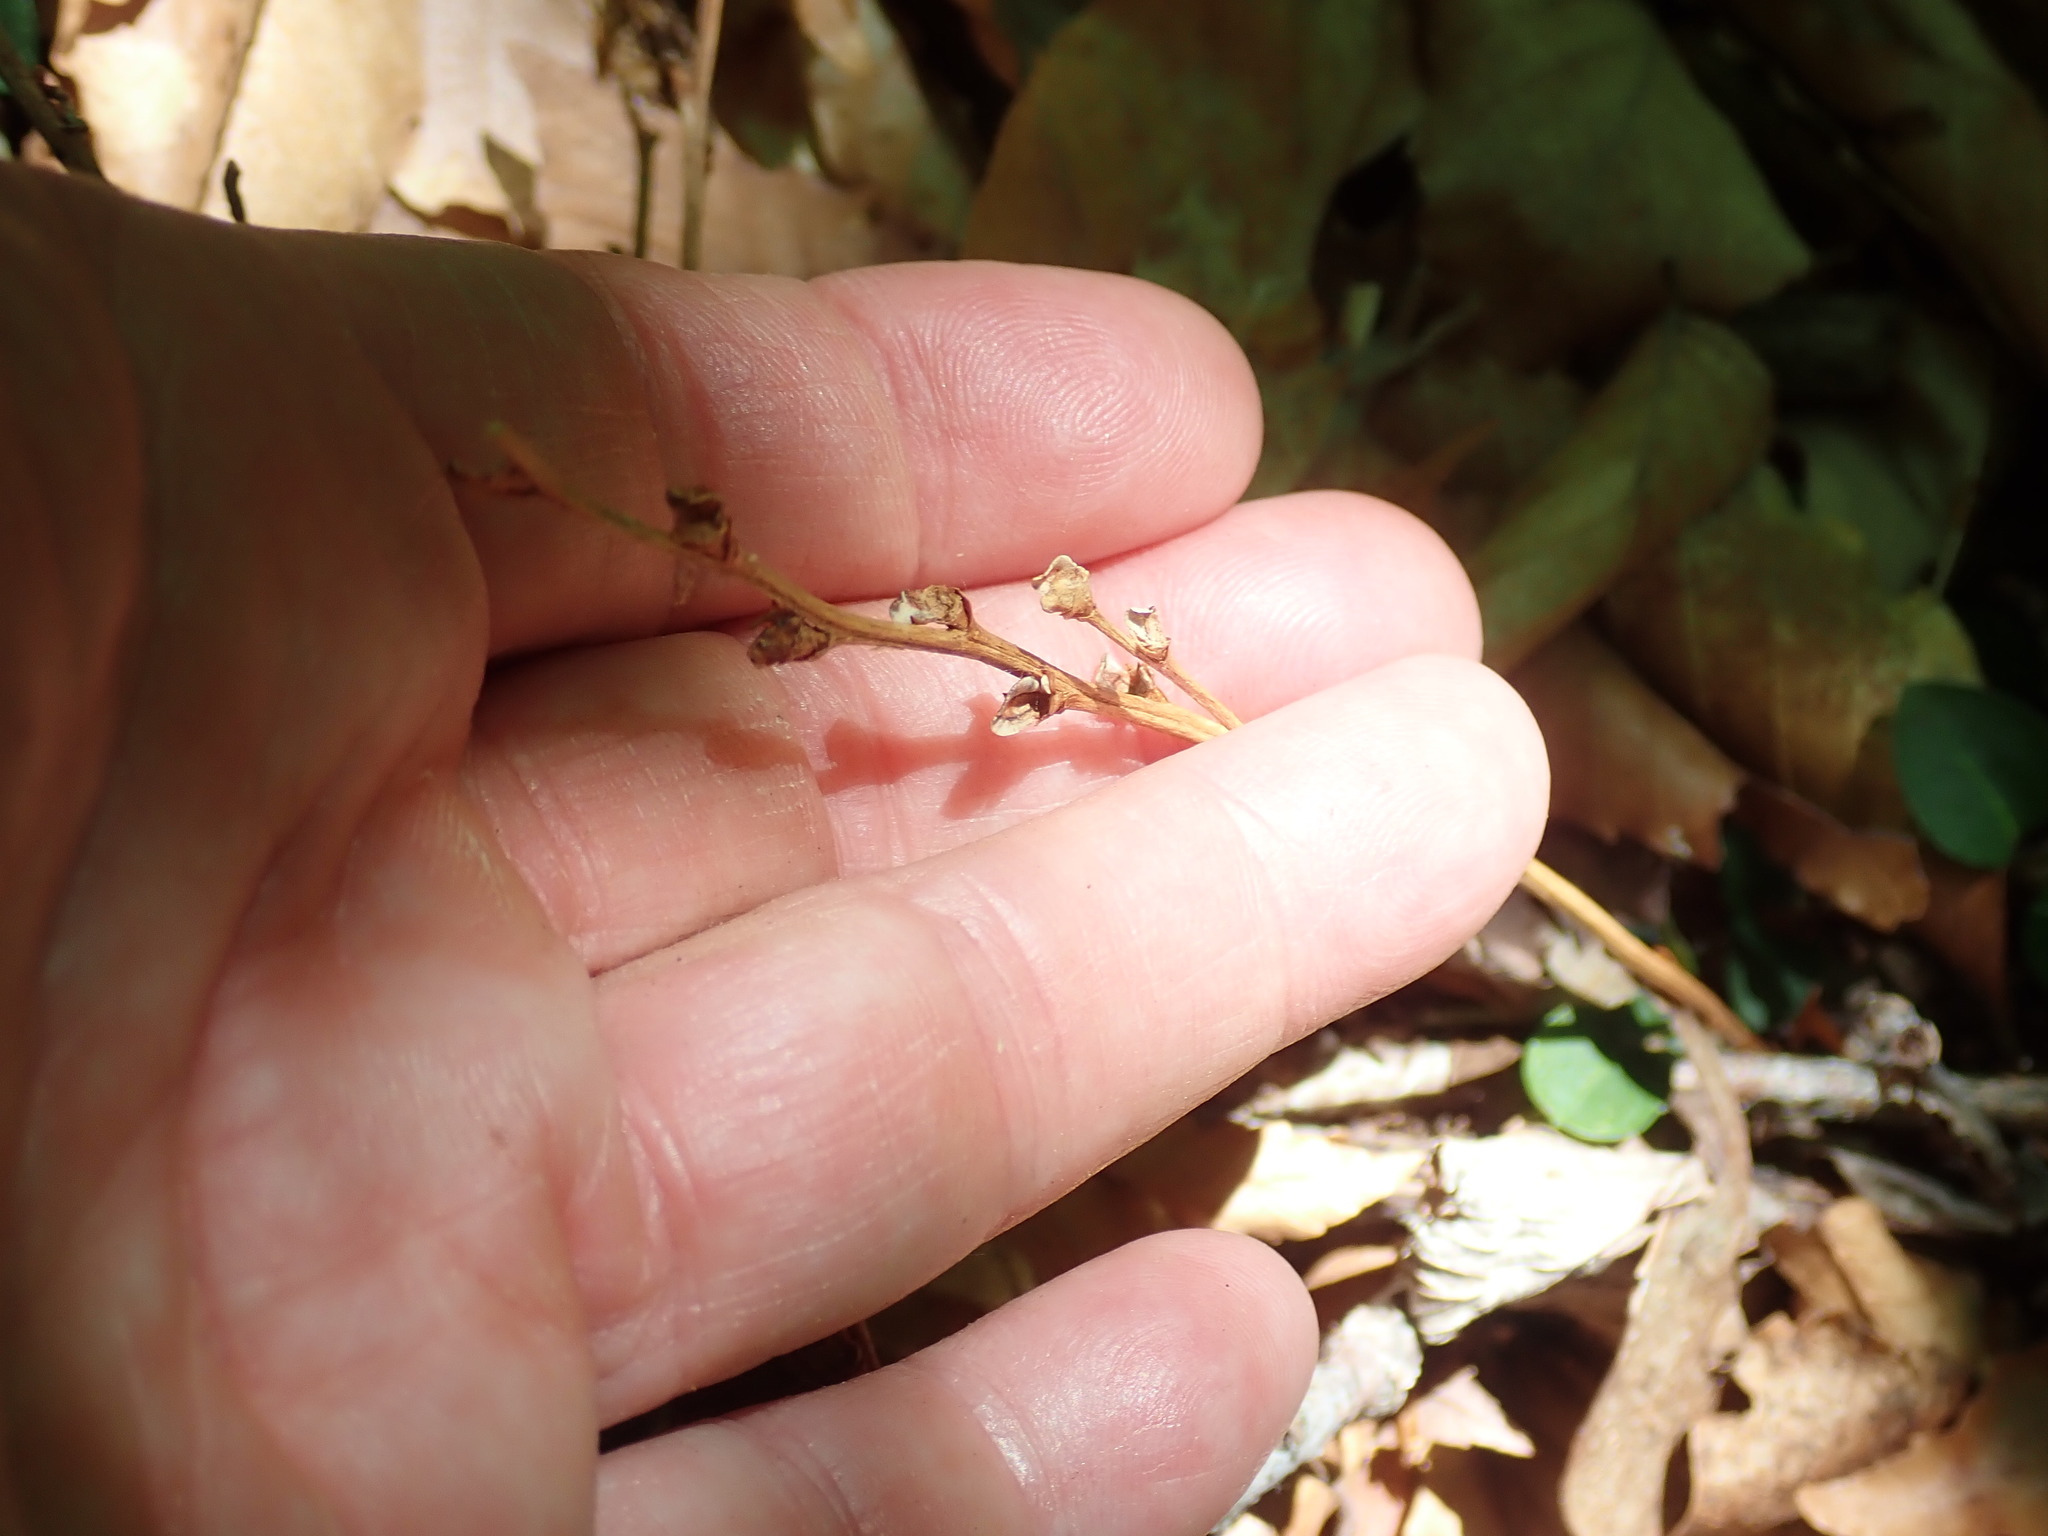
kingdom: Plantae
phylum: Tracheophyta
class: Magnoliopsida
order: Lamiales
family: Orobanchaceae
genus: Epifagus
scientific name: Epifagus virginiana
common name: Beechdrops
